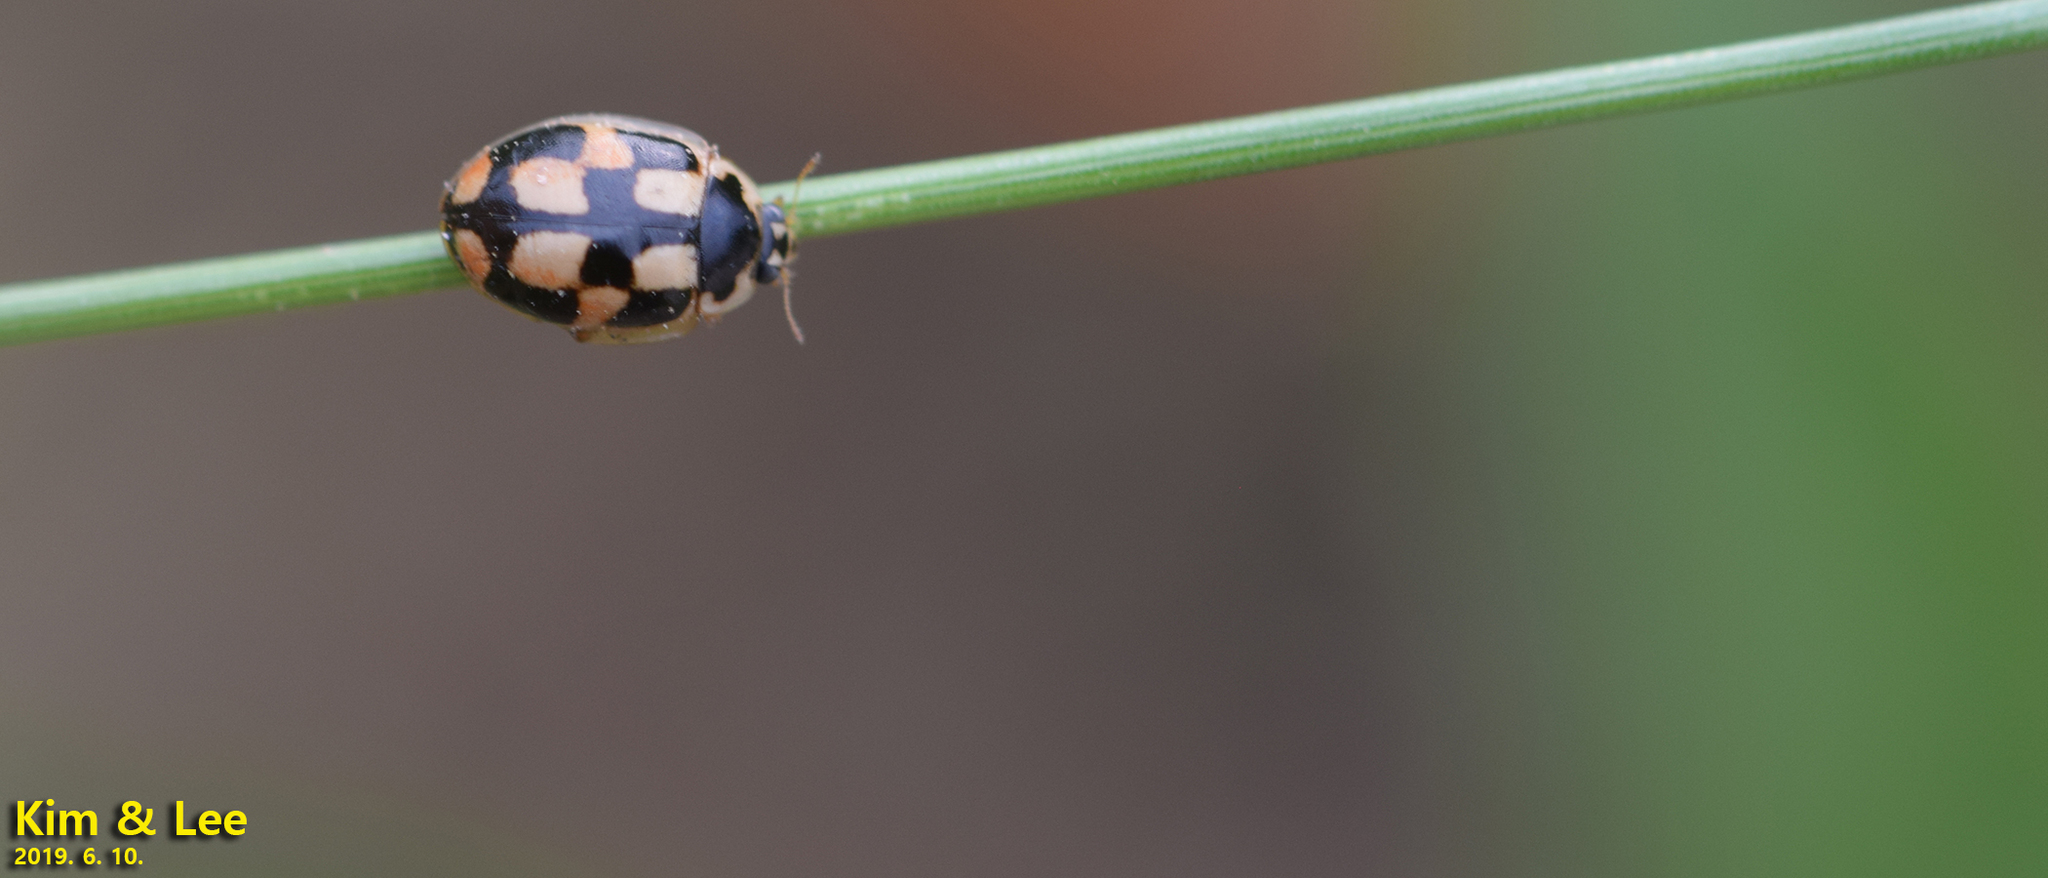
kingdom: Animalia
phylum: Arthropoda
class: Insecta
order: Coleoptera
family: Coccinellidae
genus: Propylea
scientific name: Propylea japonica
